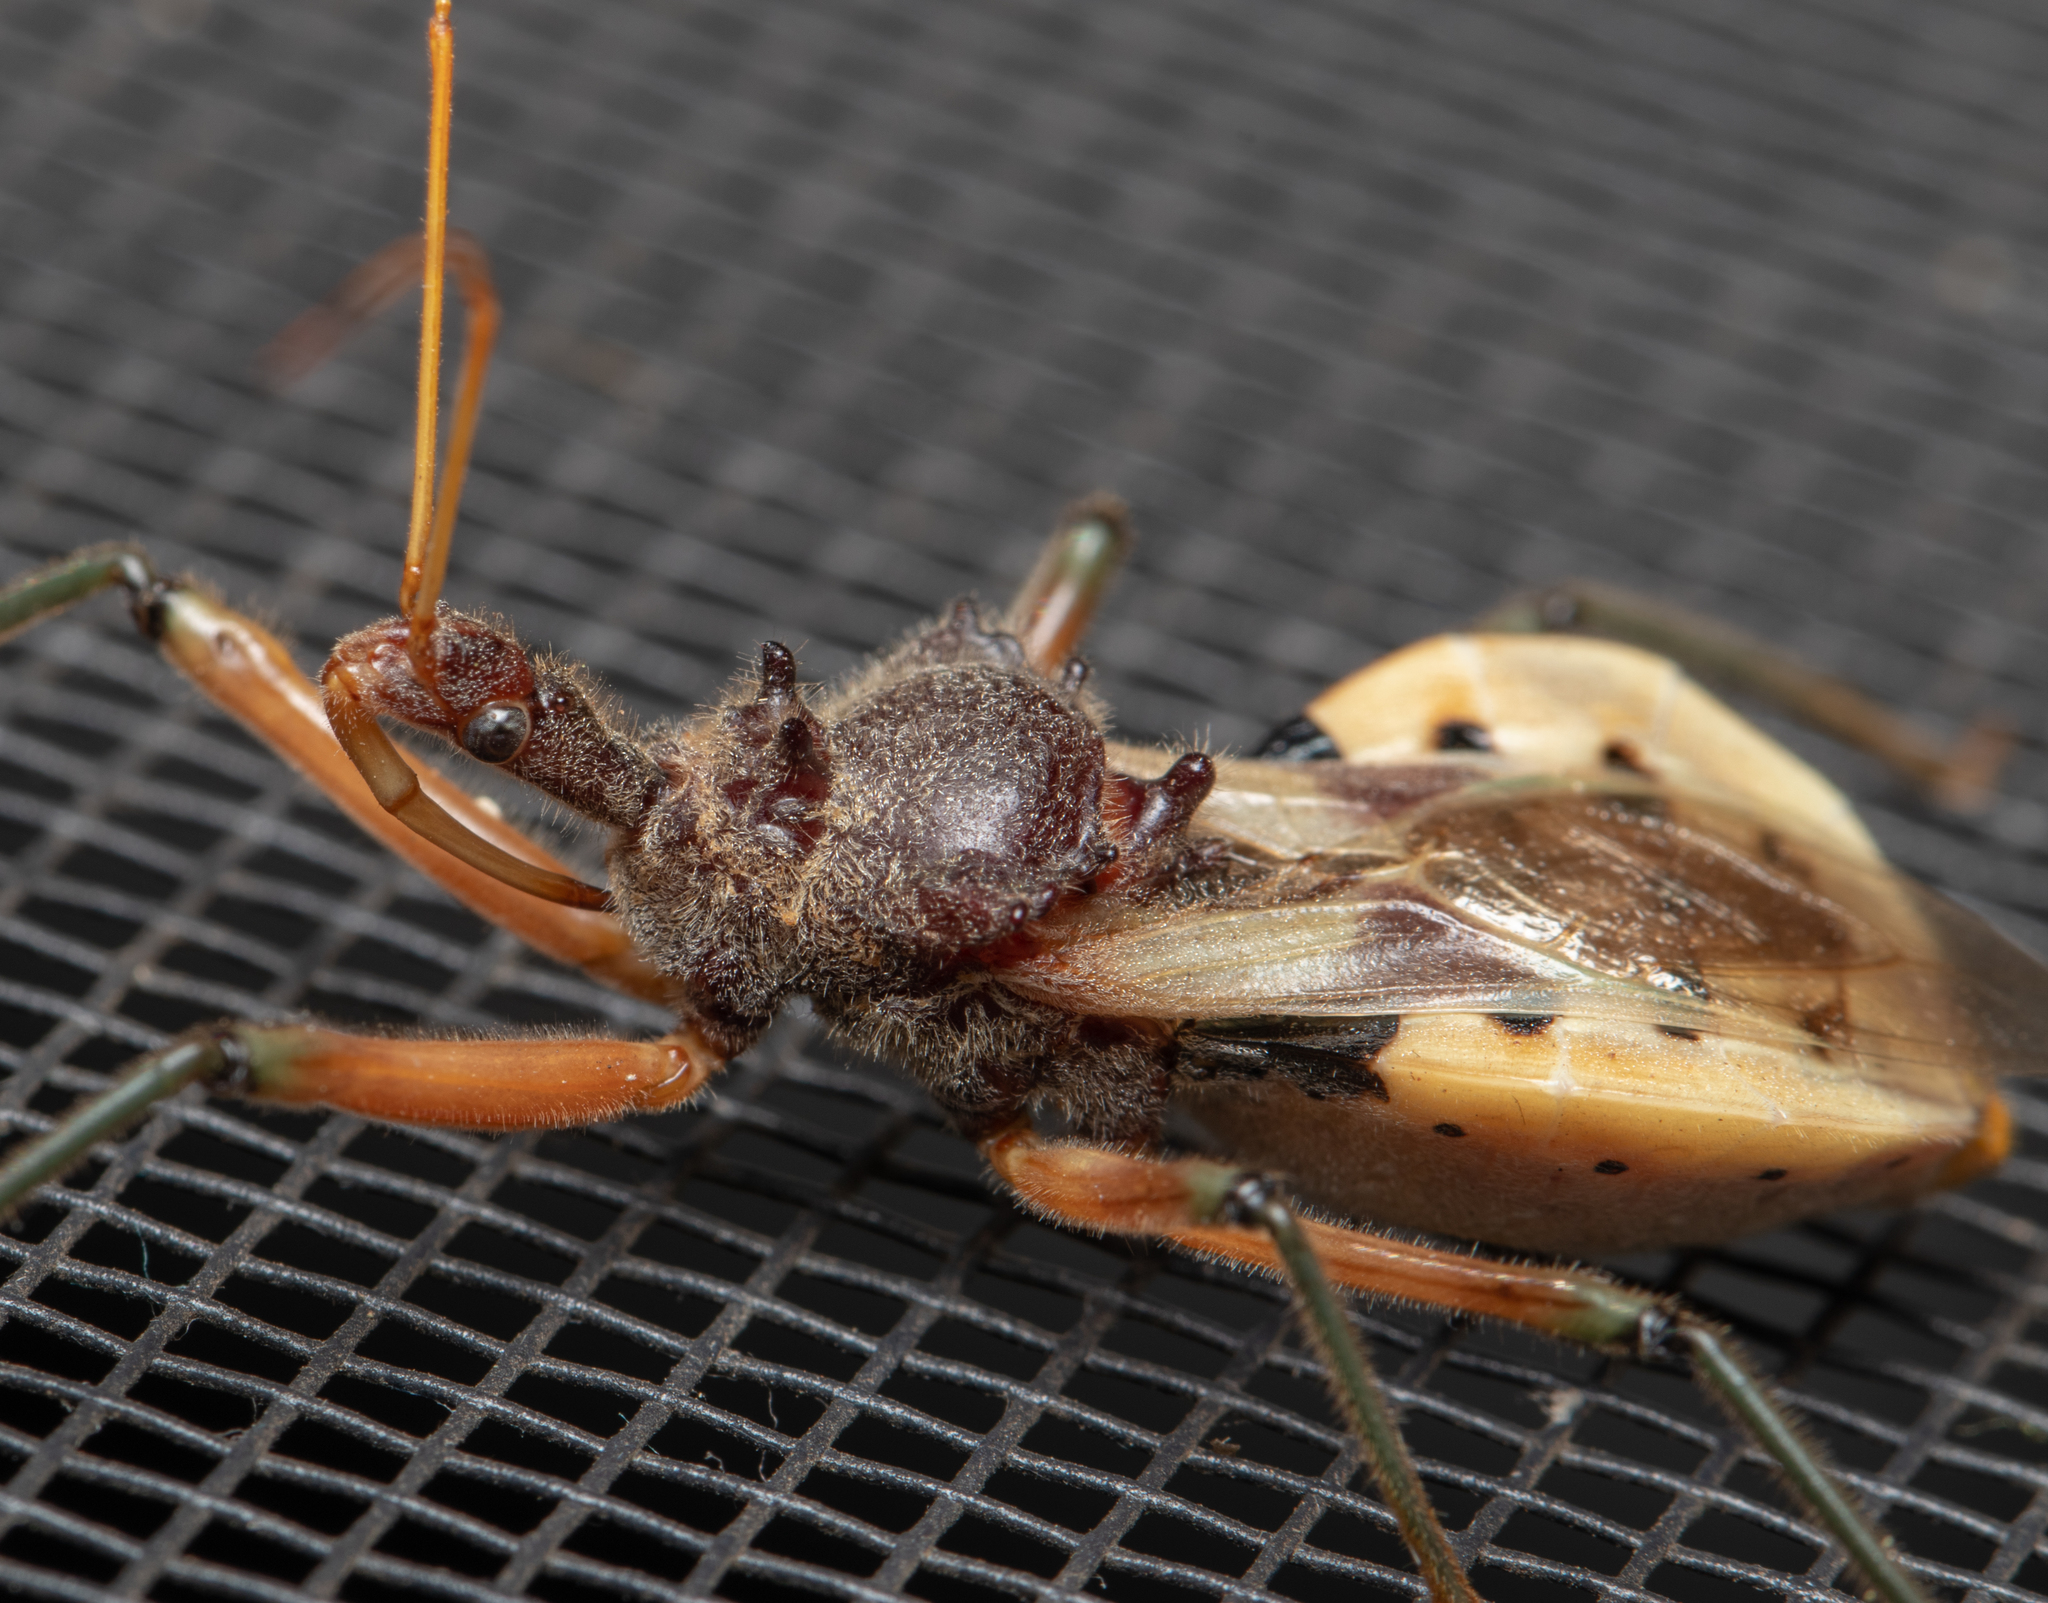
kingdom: Animalia
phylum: Arthropoda
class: Insecta
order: Hemiptera
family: Reduviidae
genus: Pristhesancus
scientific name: Pristhesancus plagipennis
